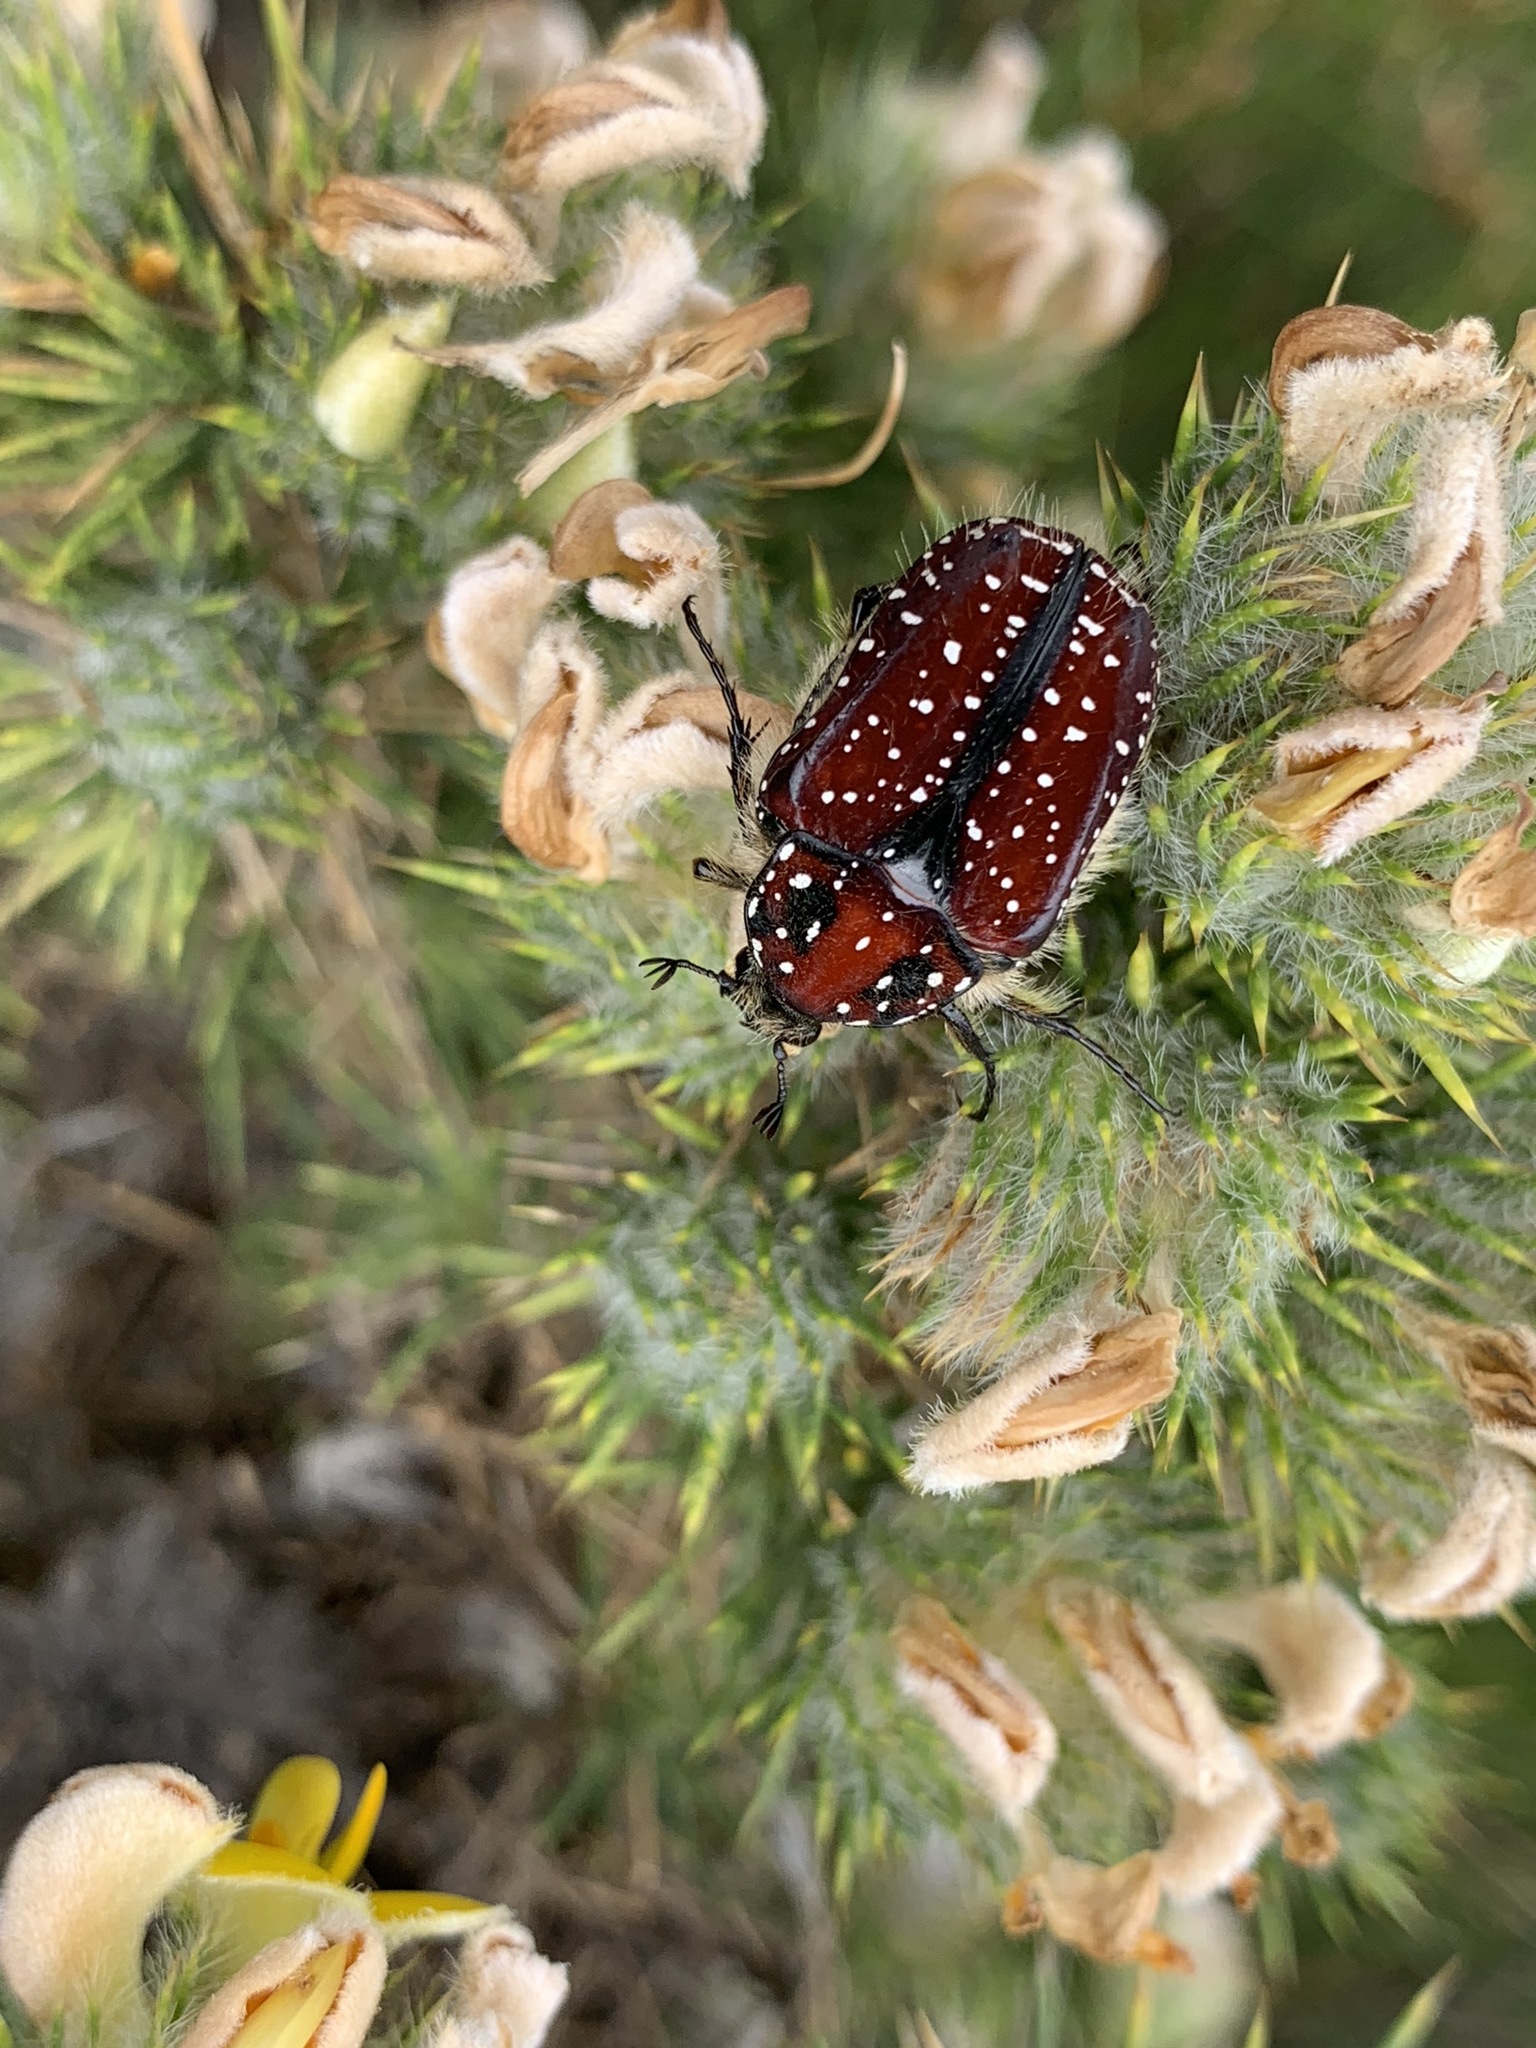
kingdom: Animalia
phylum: Arthropoda
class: Insecta
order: Coleoptera
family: Scarabaeidae
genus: Trichostetha
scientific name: Trichostetha capensis
